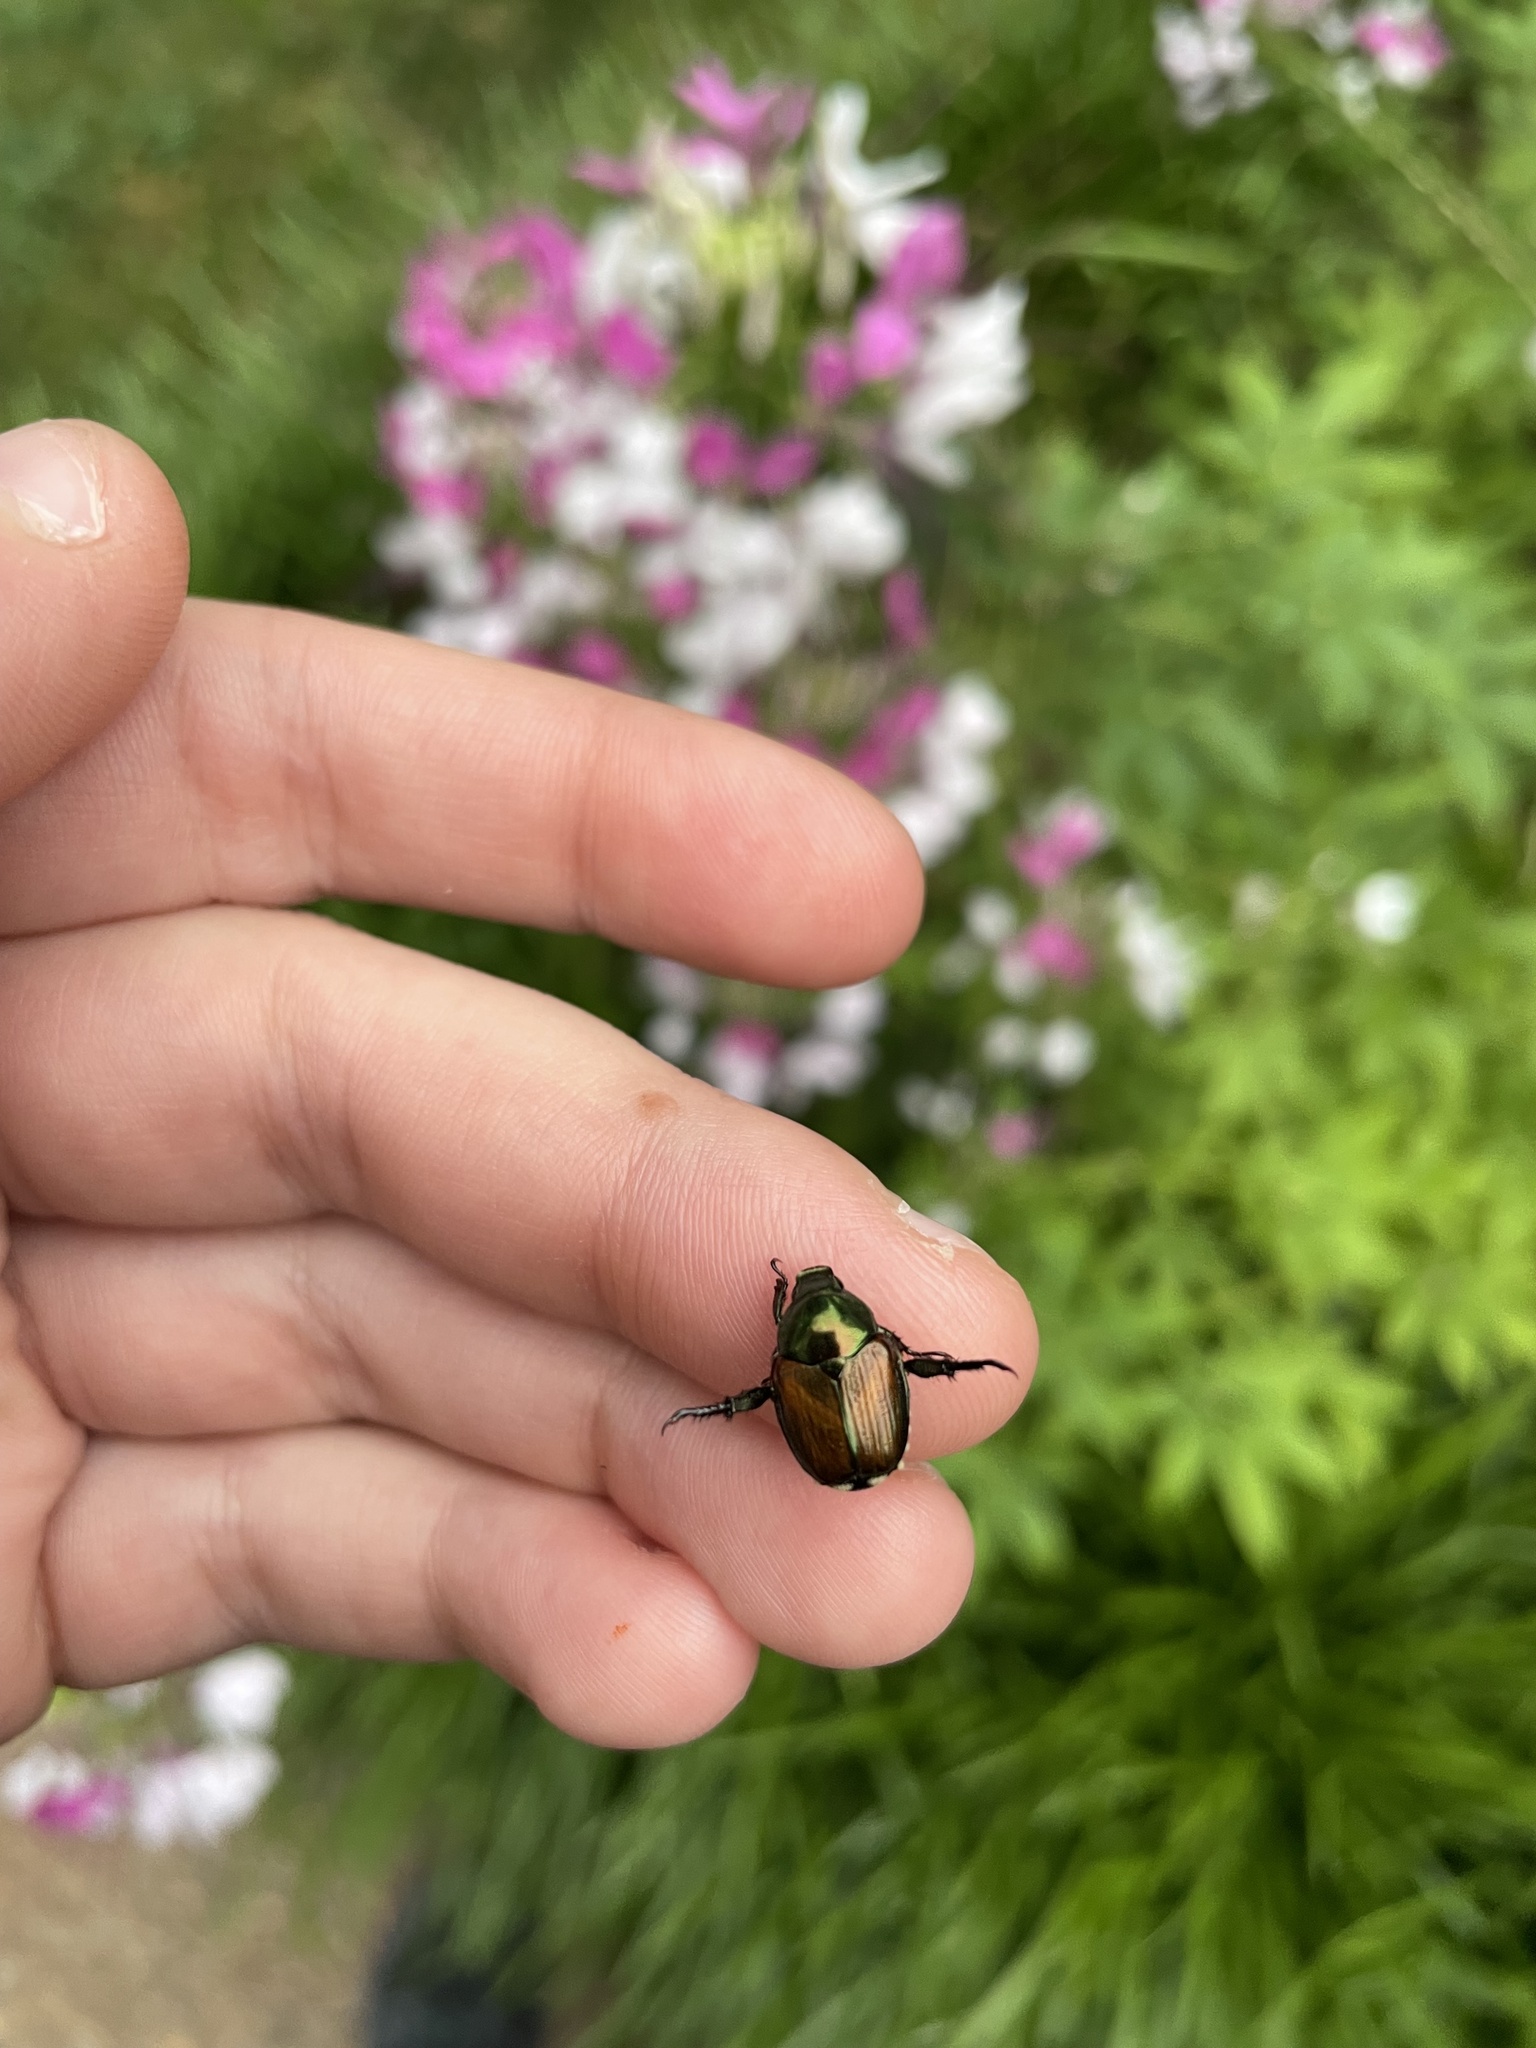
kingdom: Animalia
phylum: Arthropoda
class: Insecta
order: Coleoptera
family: Scarabaeidae
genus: Popillia
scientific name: Popillia japonica
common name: Japanese beetle
